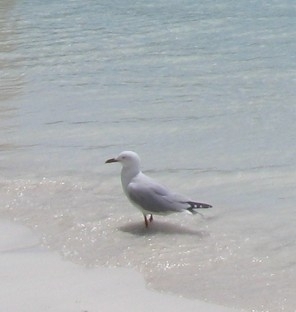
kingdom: Animalia
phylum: Chordata
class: Aves
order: Charadriiformes
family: Laridae
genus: Chroicocephalus
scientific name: Chroicocephalus novaehollandiae
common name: Silver gull
